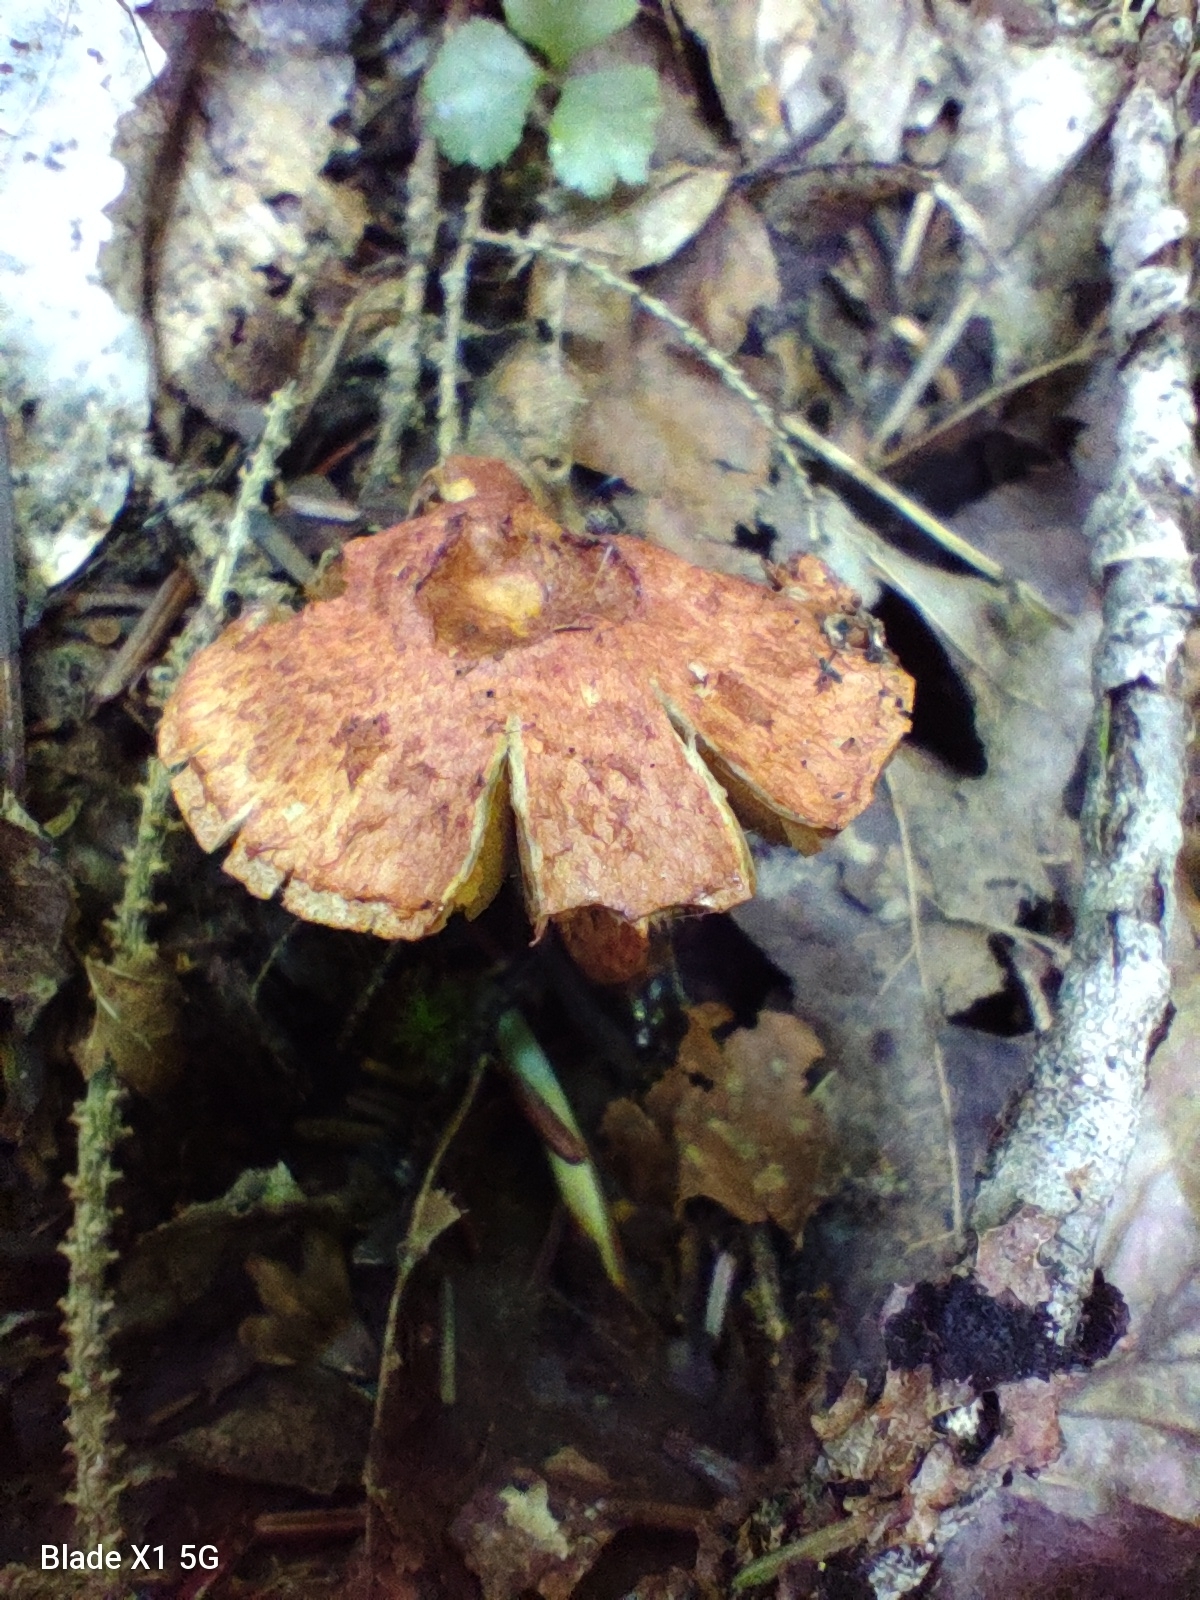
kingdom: Fungi
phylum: Basidiomycota
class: Agaricomycetes
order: Agaricales
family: Cortinariaceae
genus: Cortinarius
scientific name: Cortinarius bolaris
